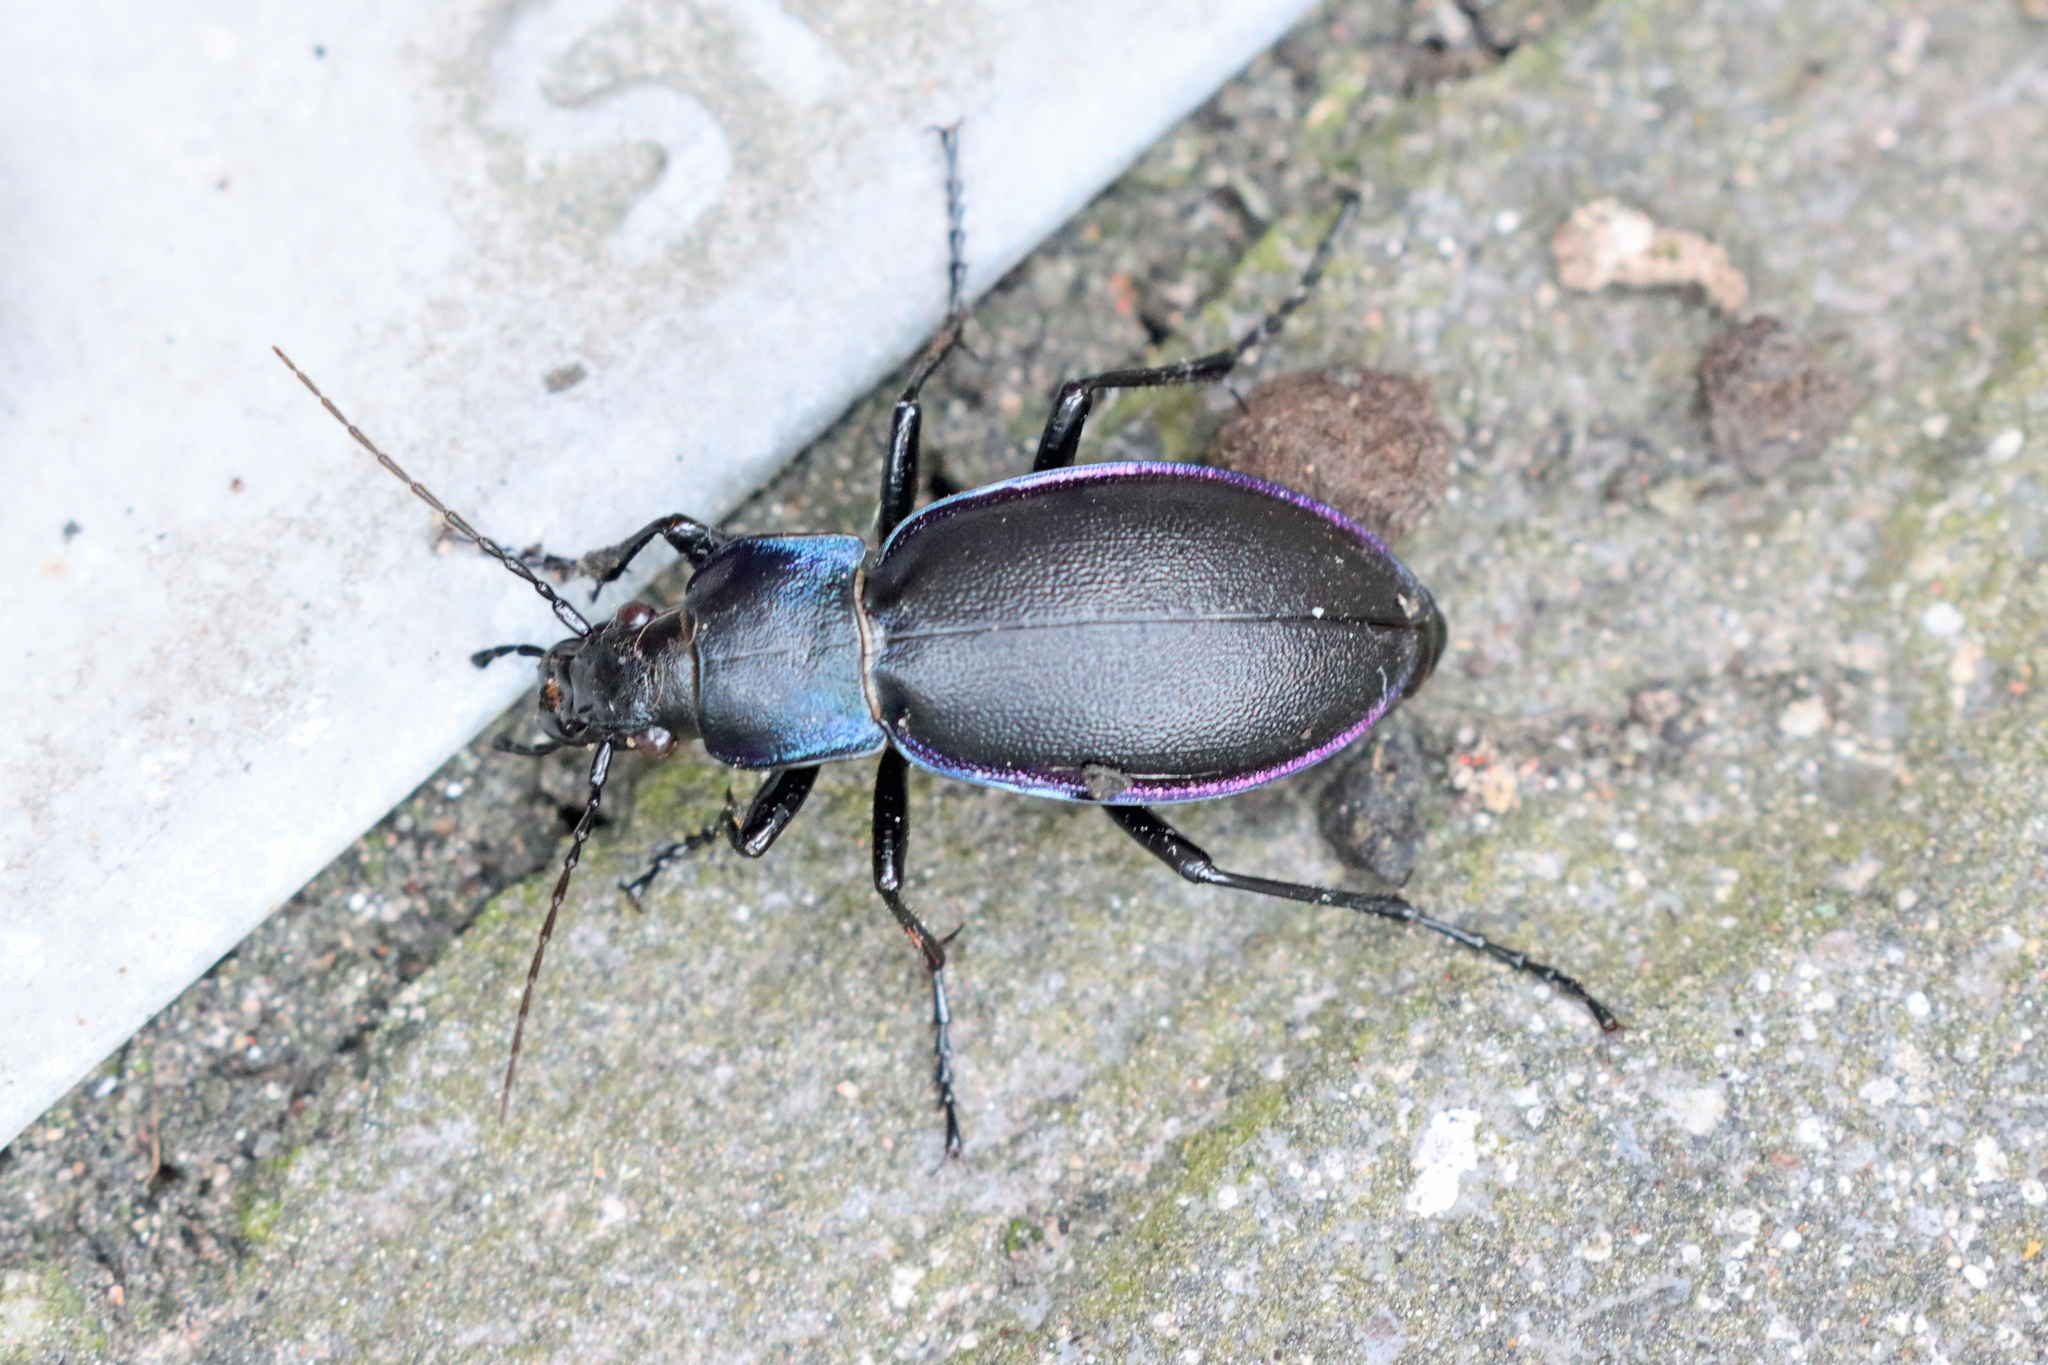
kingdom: Animalia
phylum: Arthropoda
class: Insecta
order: Coleoptera
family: Carabidae
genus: Carabus
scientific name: Carabus violaceus
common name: Violet ground beetle
